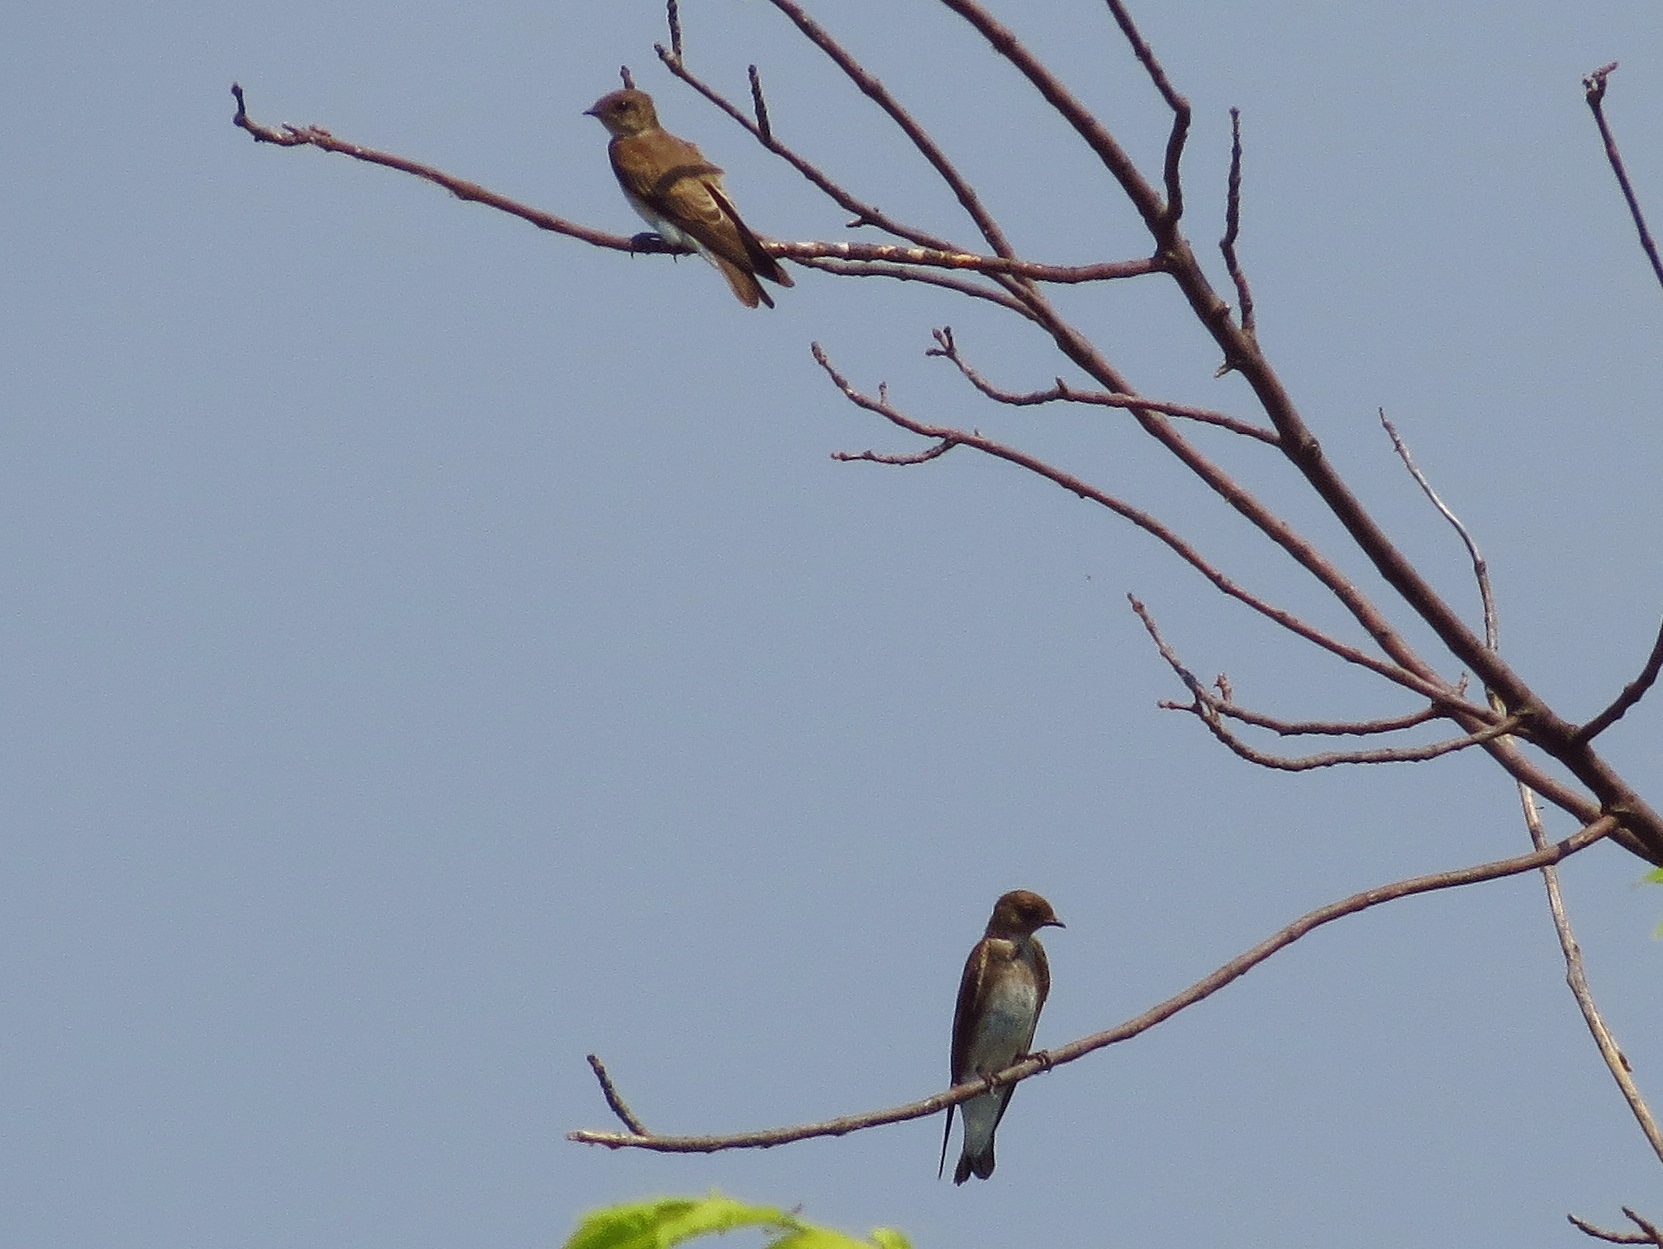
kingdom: Animalia
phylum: Chordata
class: Aves
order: Passeriformes
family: Hirundinidae
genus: Stelgidopteryx
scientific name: Stelgidopteryx serripennis
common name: Northern rough-winged swallow
